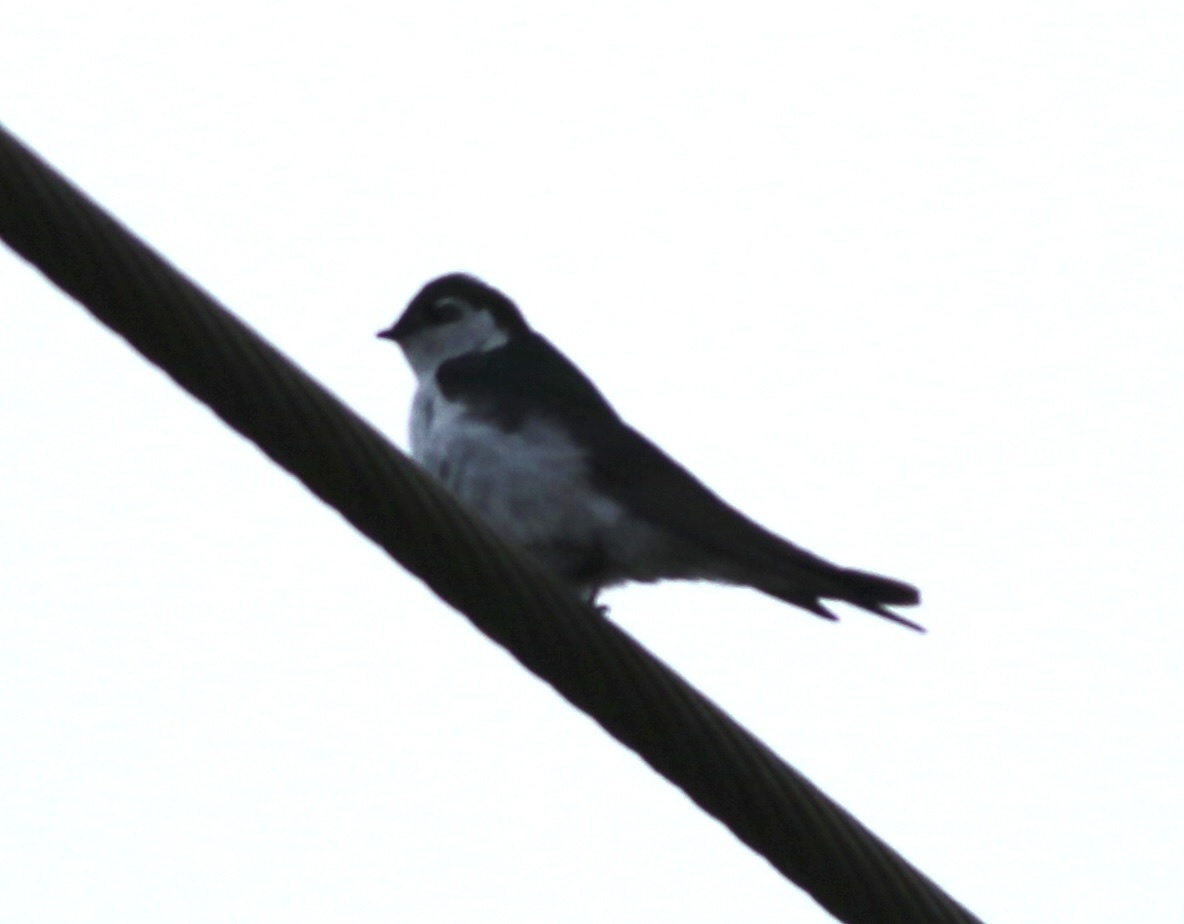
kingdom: Animalia
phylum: Chordata
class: Aves
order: Passeriformes
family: Hirundinidae
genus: Tachycineta
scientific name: Tachycineta thalassina
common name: Violet-green swallow
